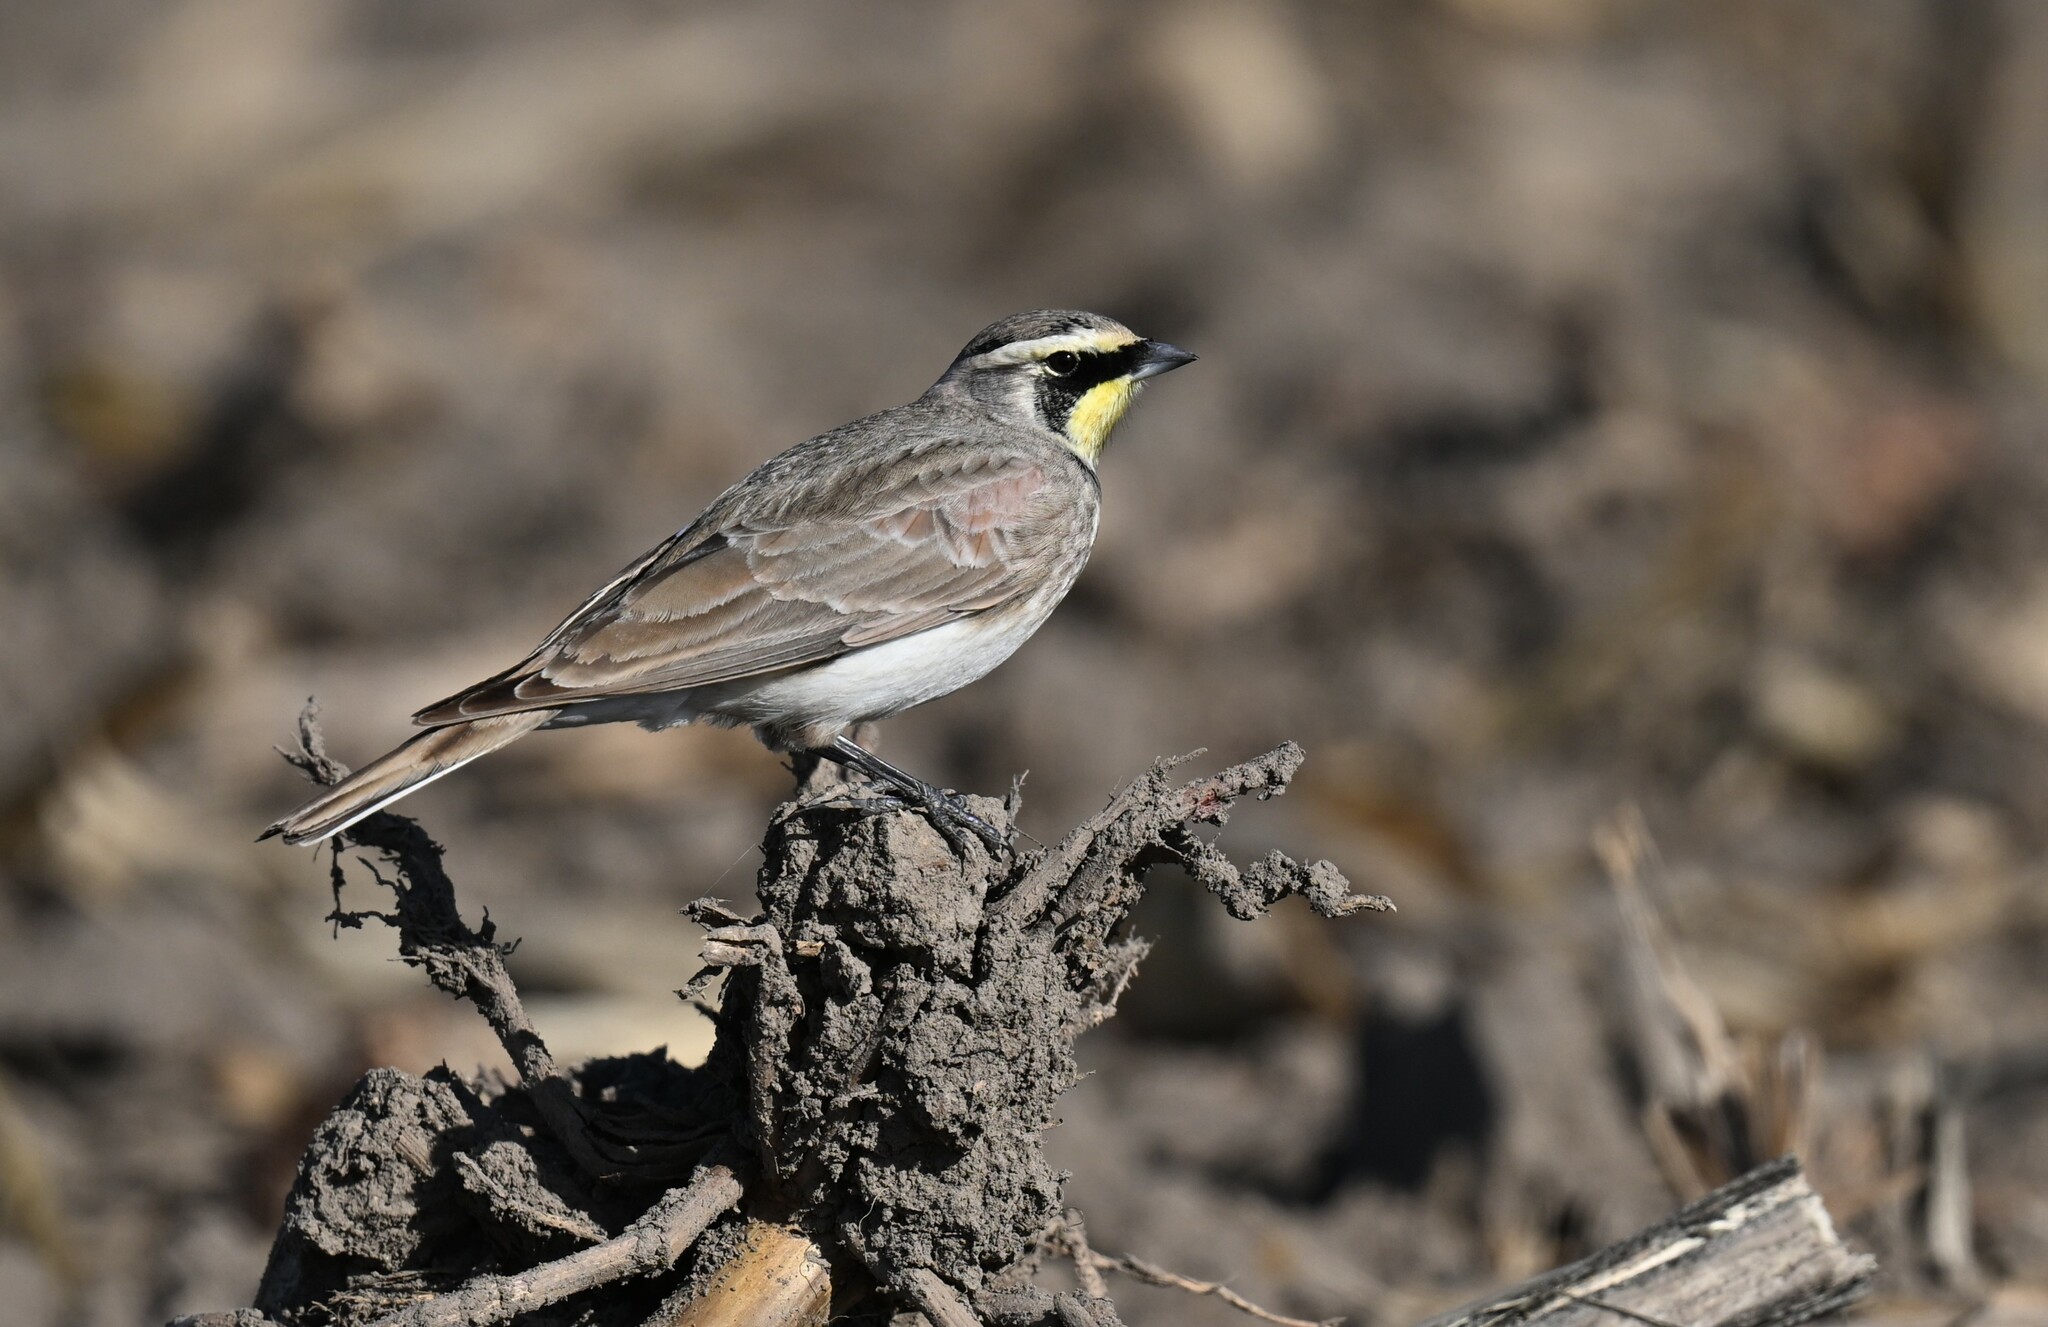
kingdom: Animalia
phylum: Chordata
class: Aves
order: Passeriformes
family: Alaudidae
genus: Eremophila
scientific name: Eremophila alpestris
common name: Horned lark
